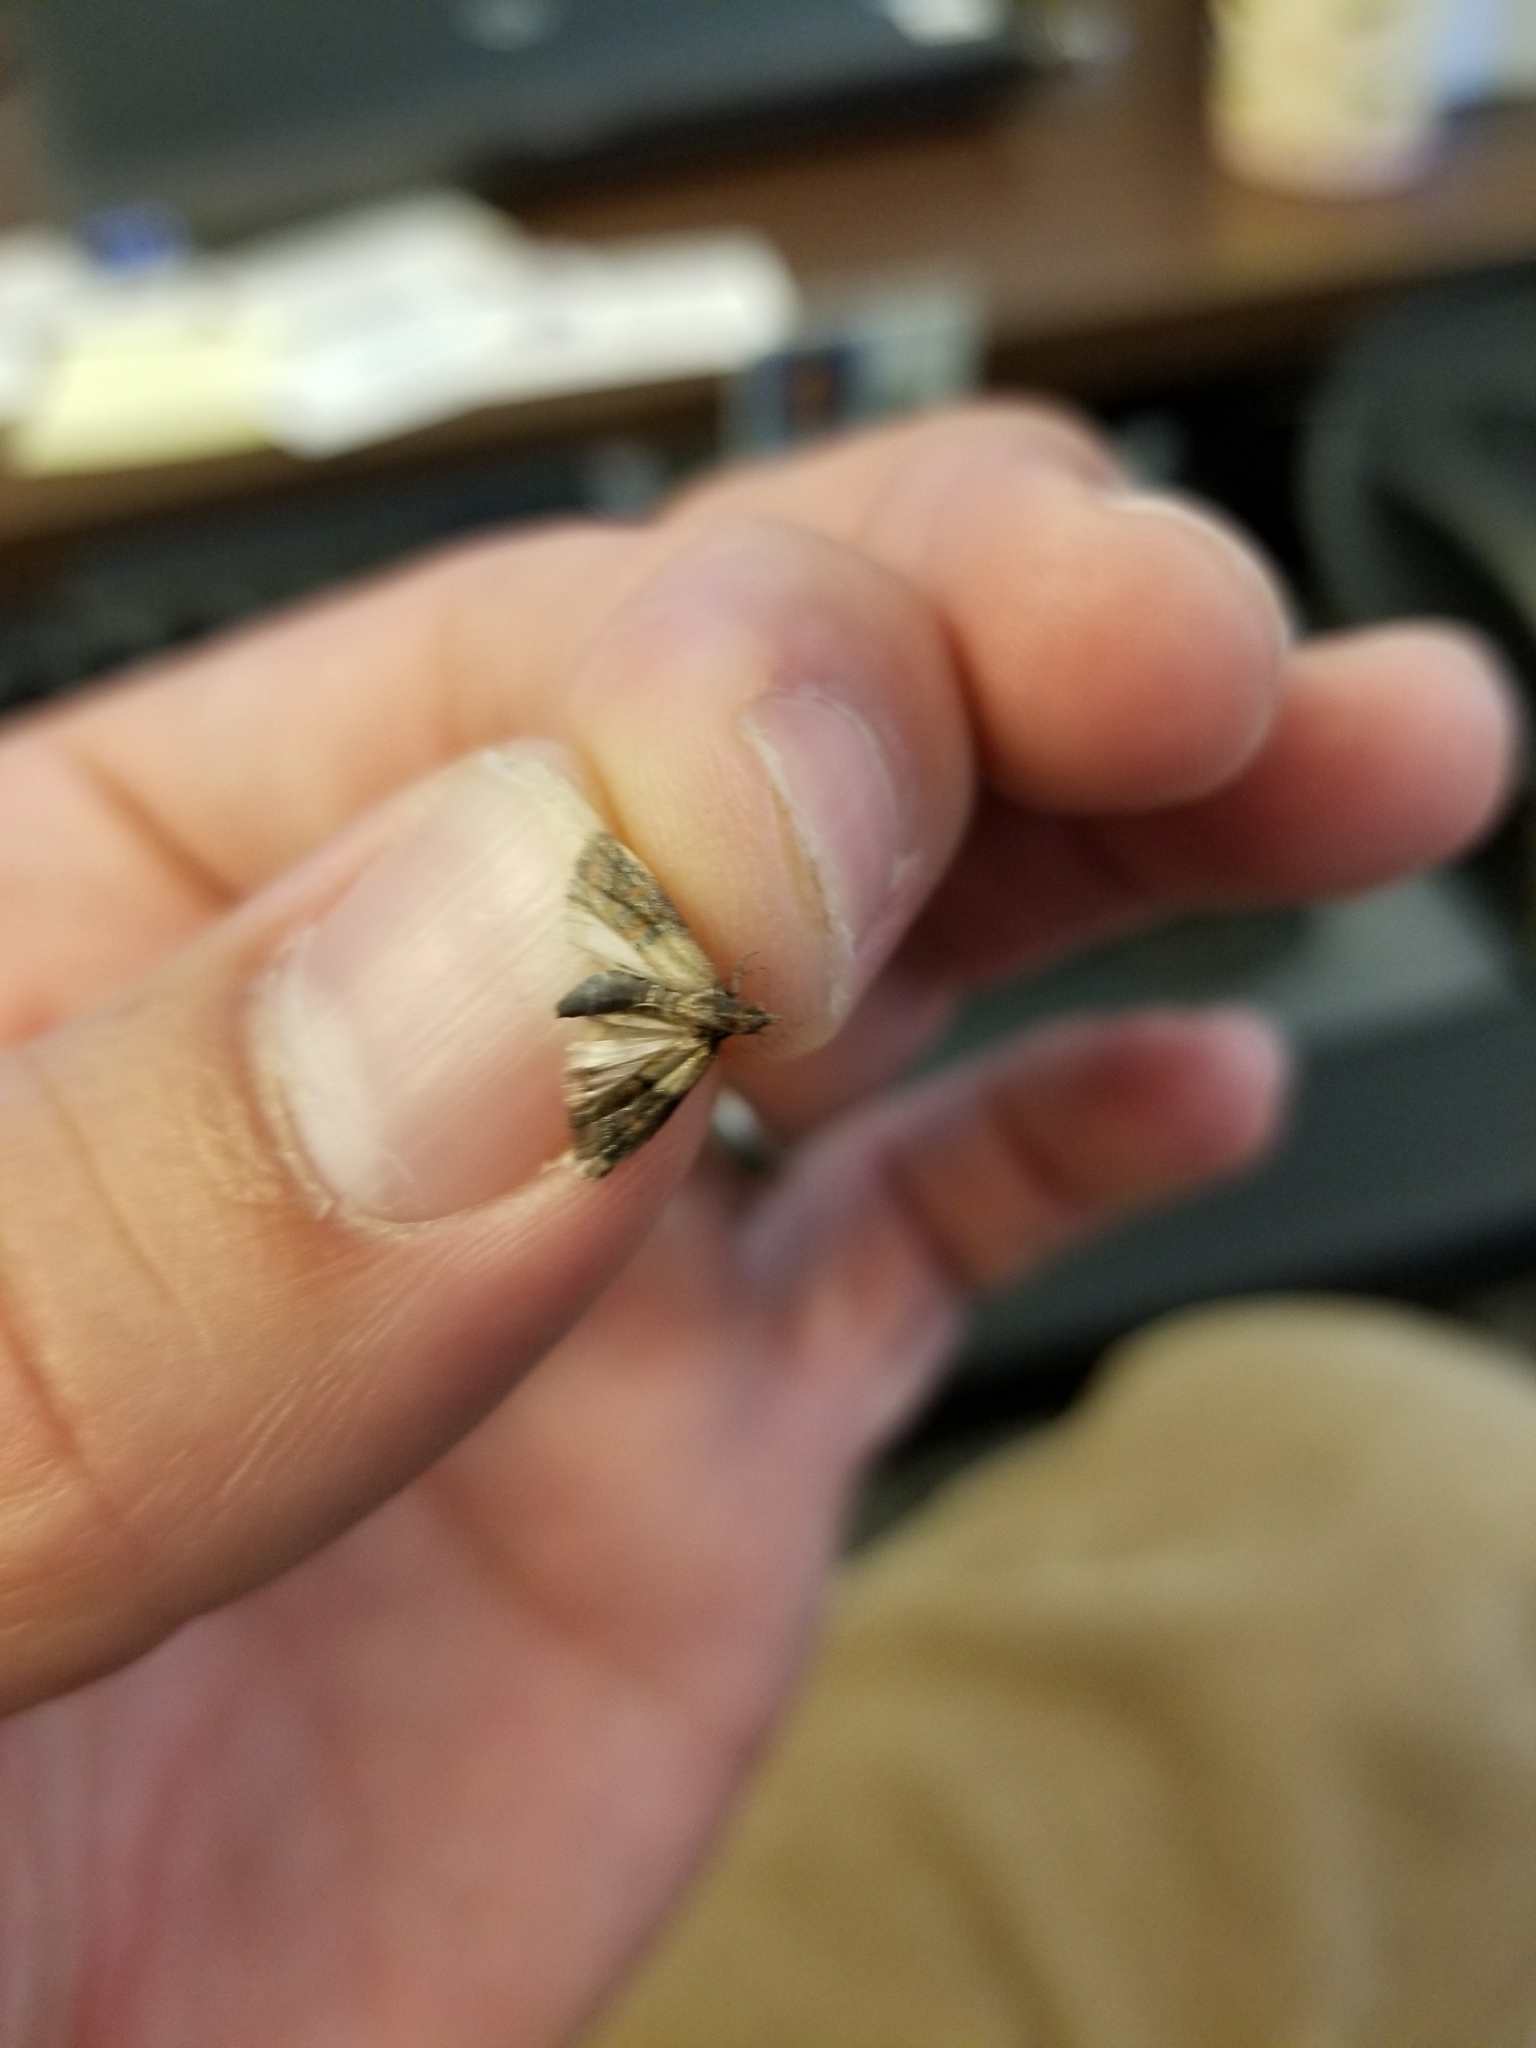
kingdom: Animalia
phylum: Arthropoda
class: Insecta
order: Lepidoptera
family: Pyralidae
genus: Plodia
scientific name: Plodia interpunctella
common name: Indian meal moth
